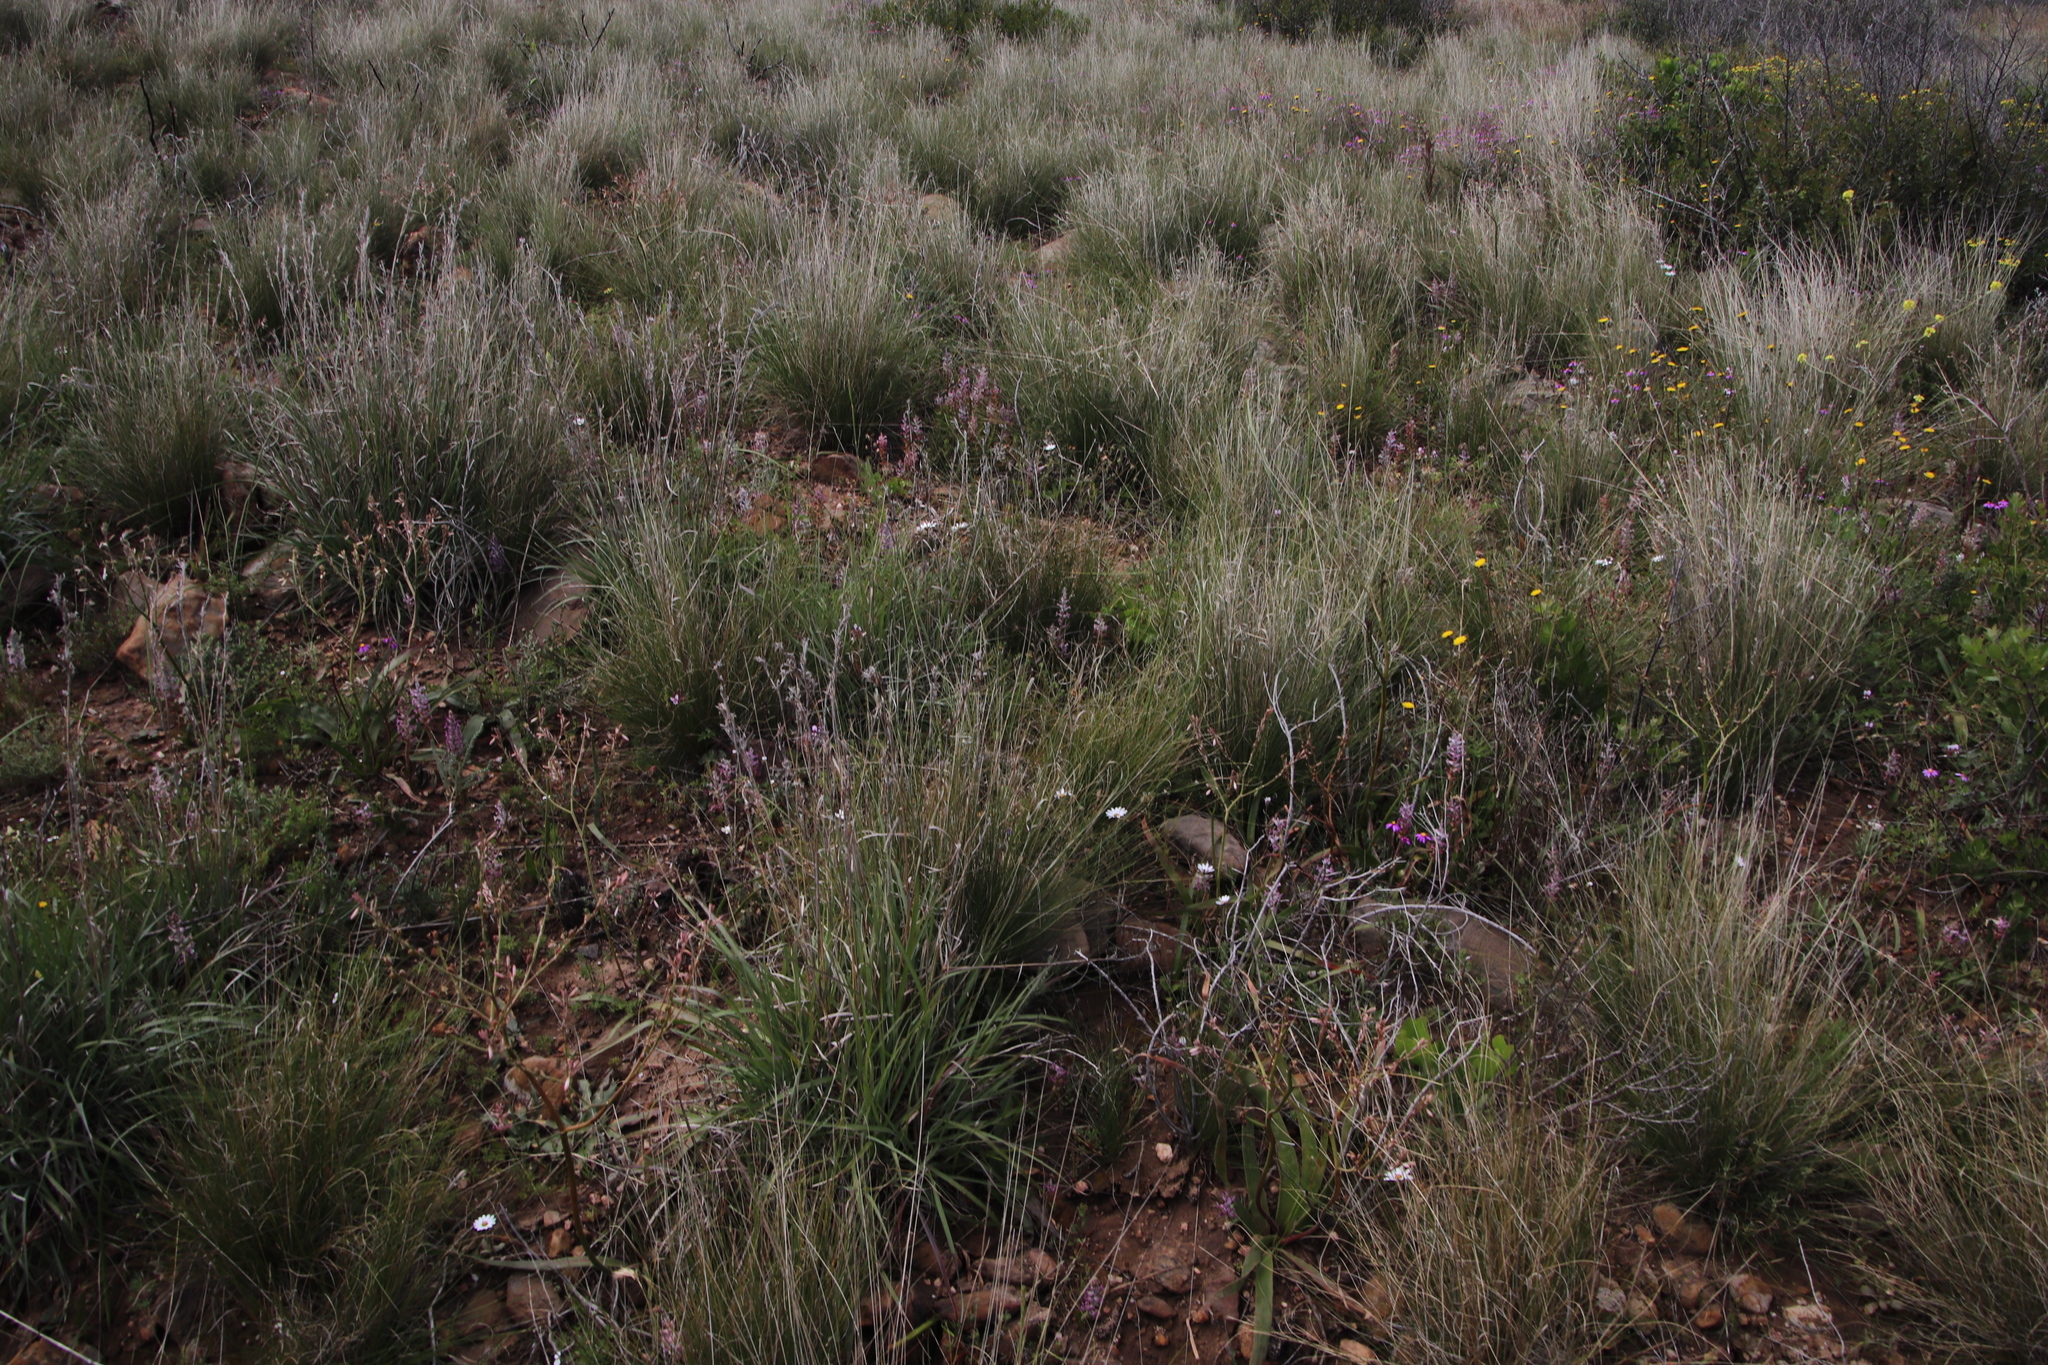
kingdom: Plantae
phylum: Tracheophyta
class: Liliopsida
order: Asparagales
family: Asparagaceae
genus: Lachenalia
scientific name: Lachenalia fistulosa
